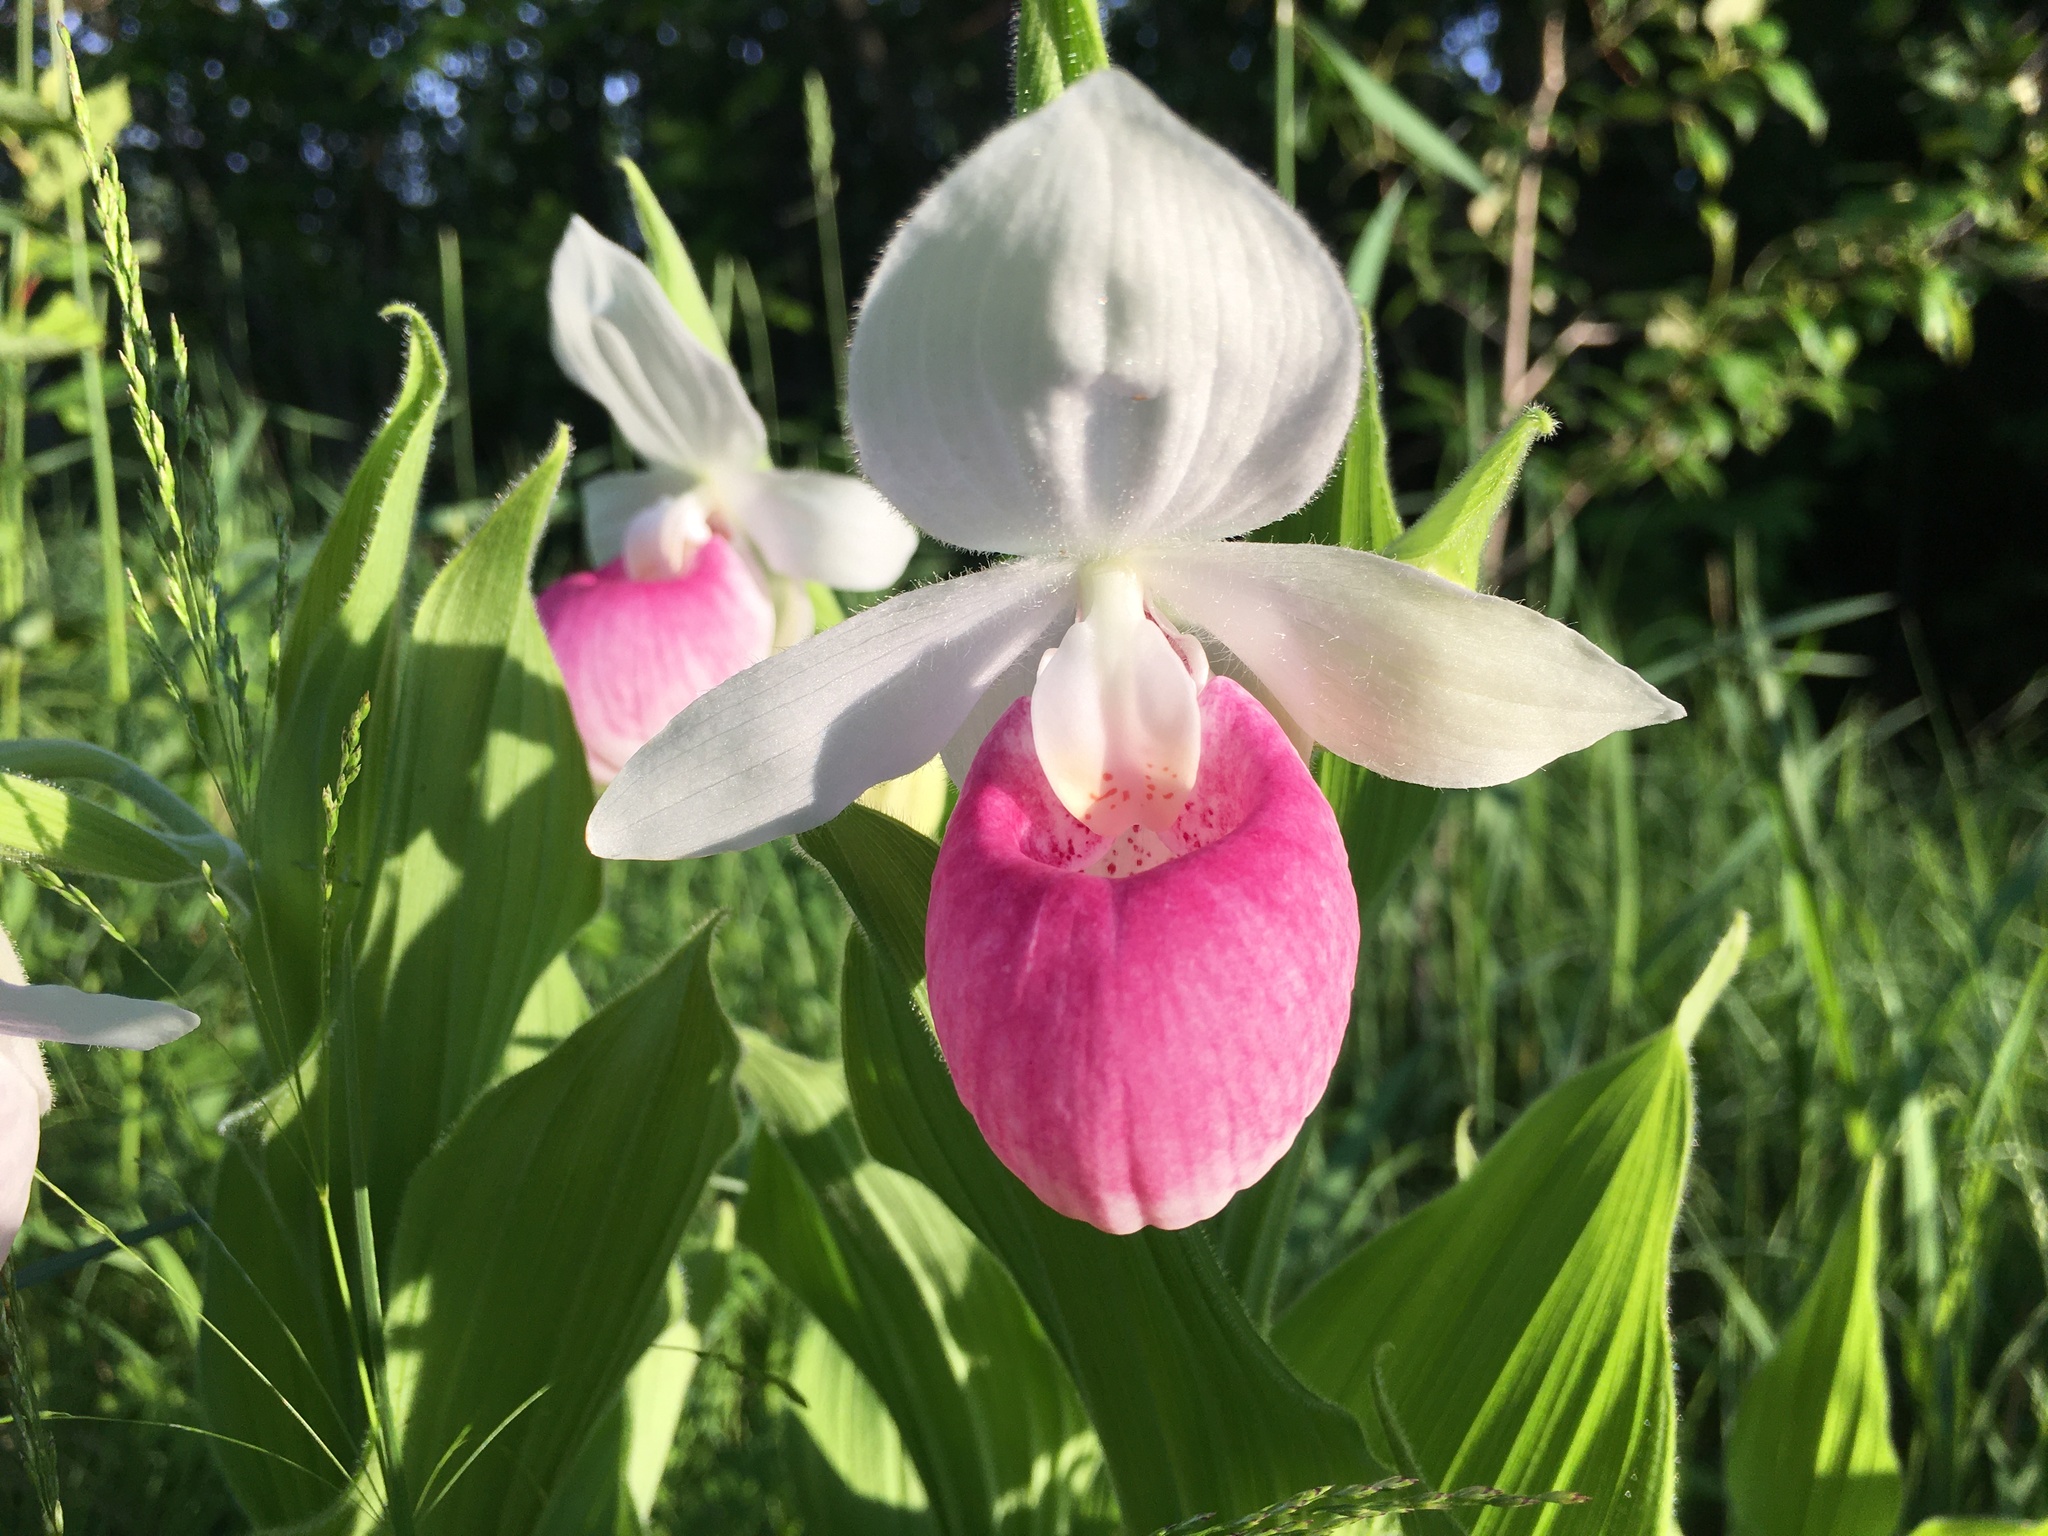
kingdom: Plantae
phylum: Tracheophyta
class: Liliopsida
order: Asparagales
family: Orchidaceae
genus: Cypripedium
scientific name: Cypripedium reginae
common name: Queen lady's-slipper
